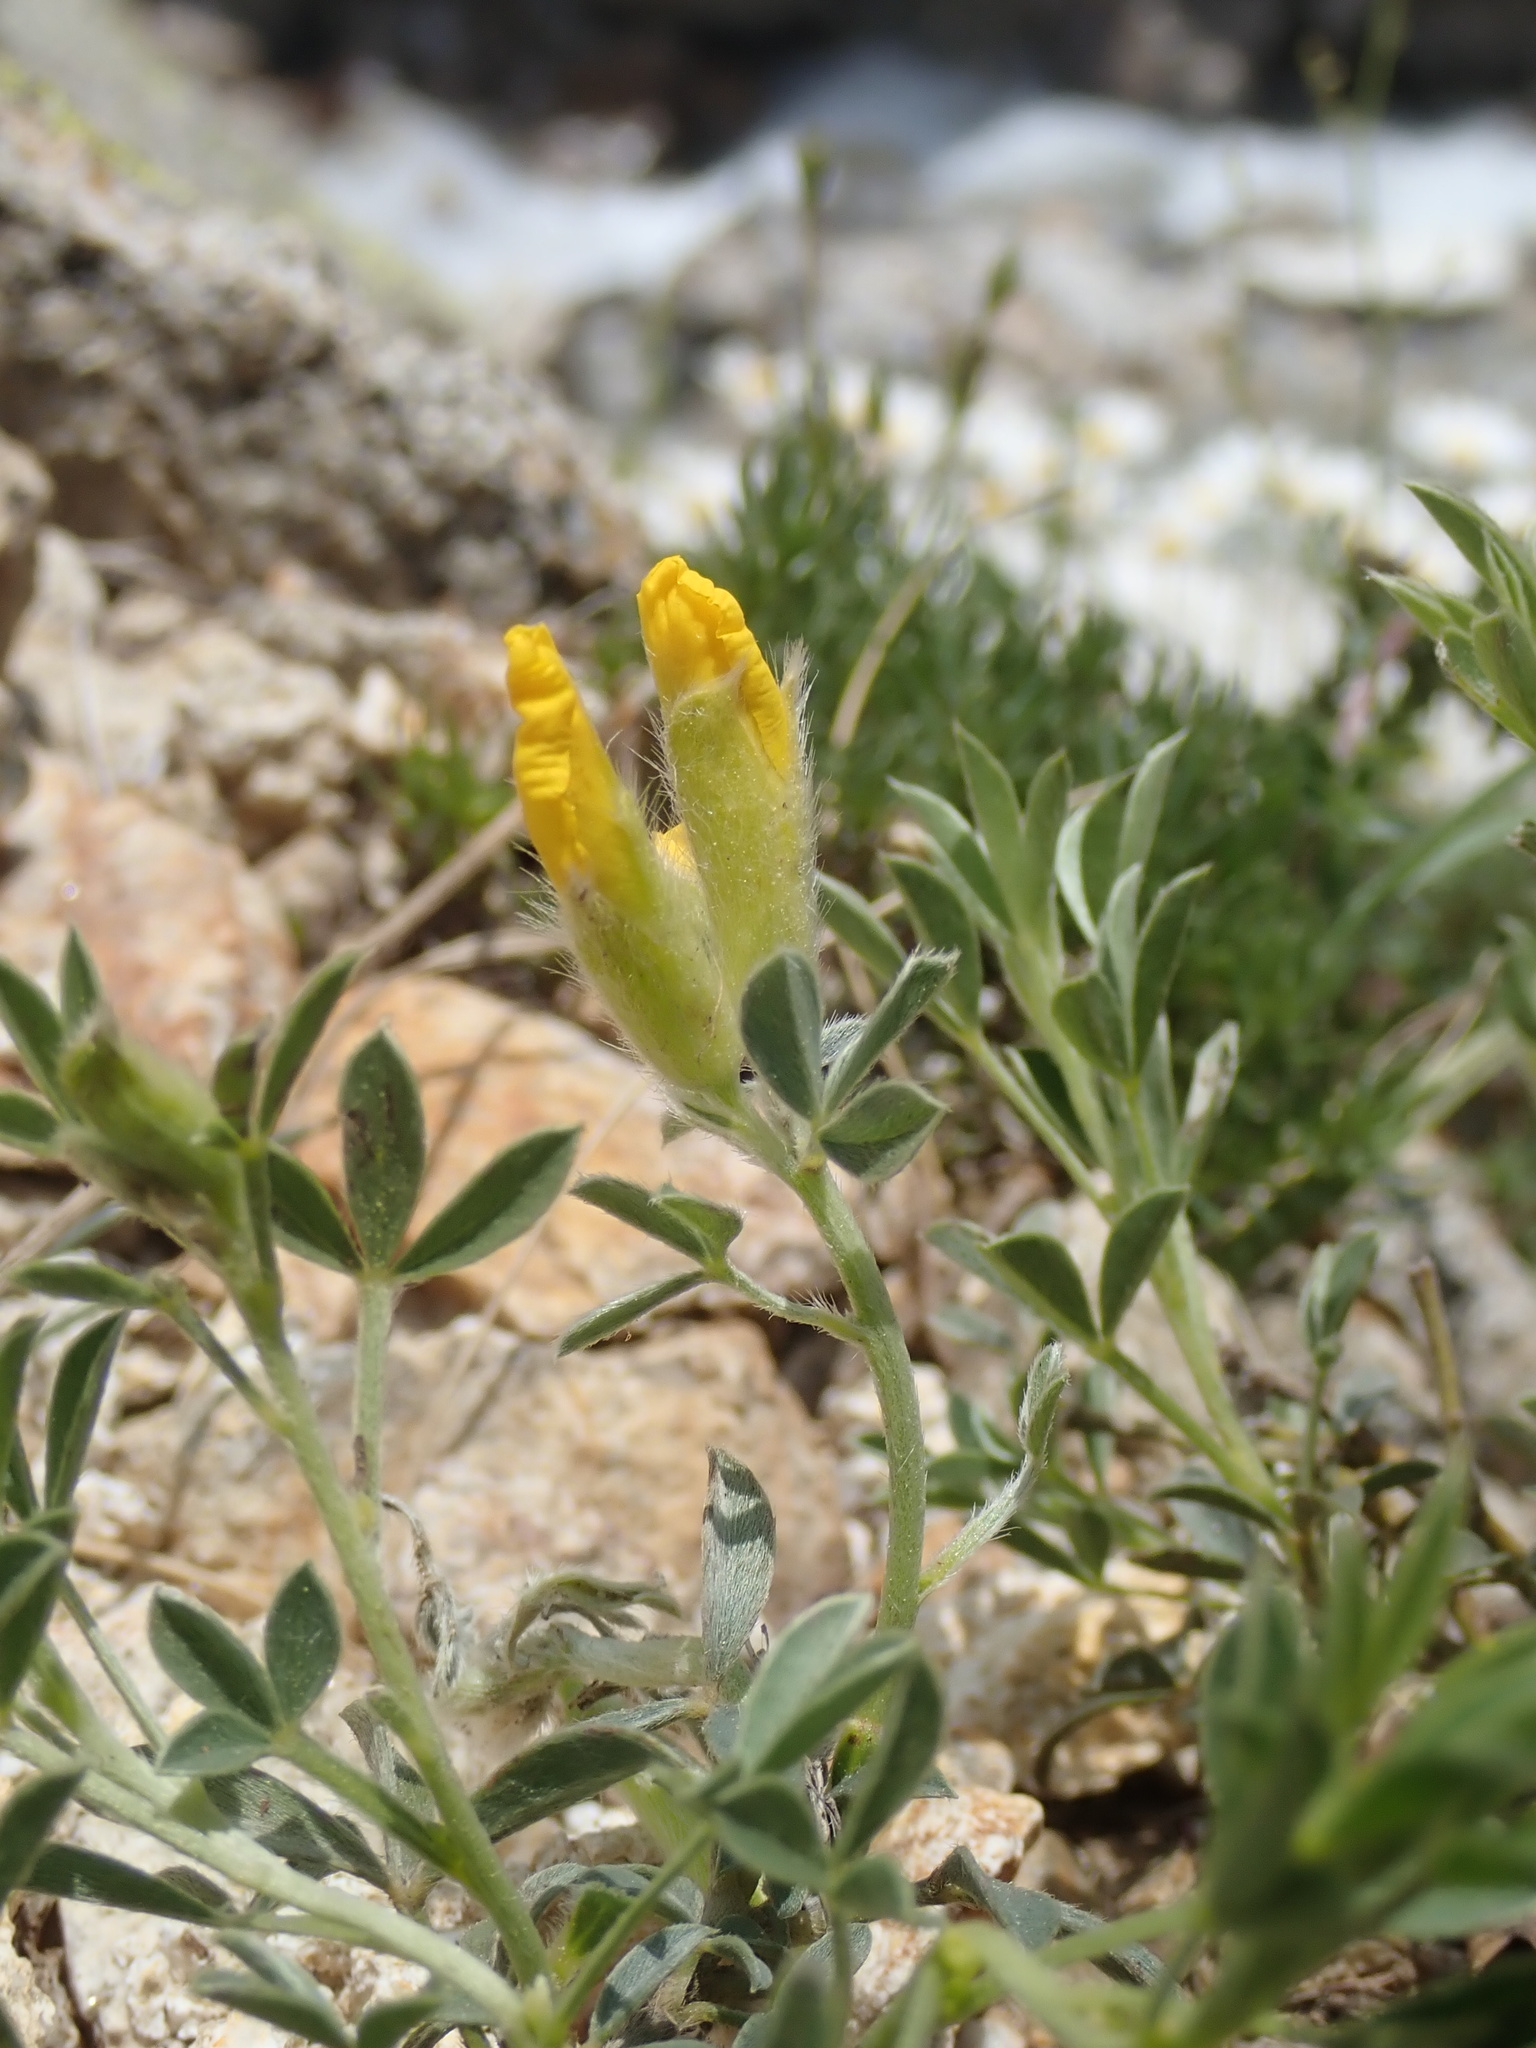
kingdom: Plantae
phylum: Tracheophyta
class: Magnoliopsida
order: Fabales
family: Fabaceae
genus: Chamaecytisus
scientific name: Chamaecytisus pygmaeus
